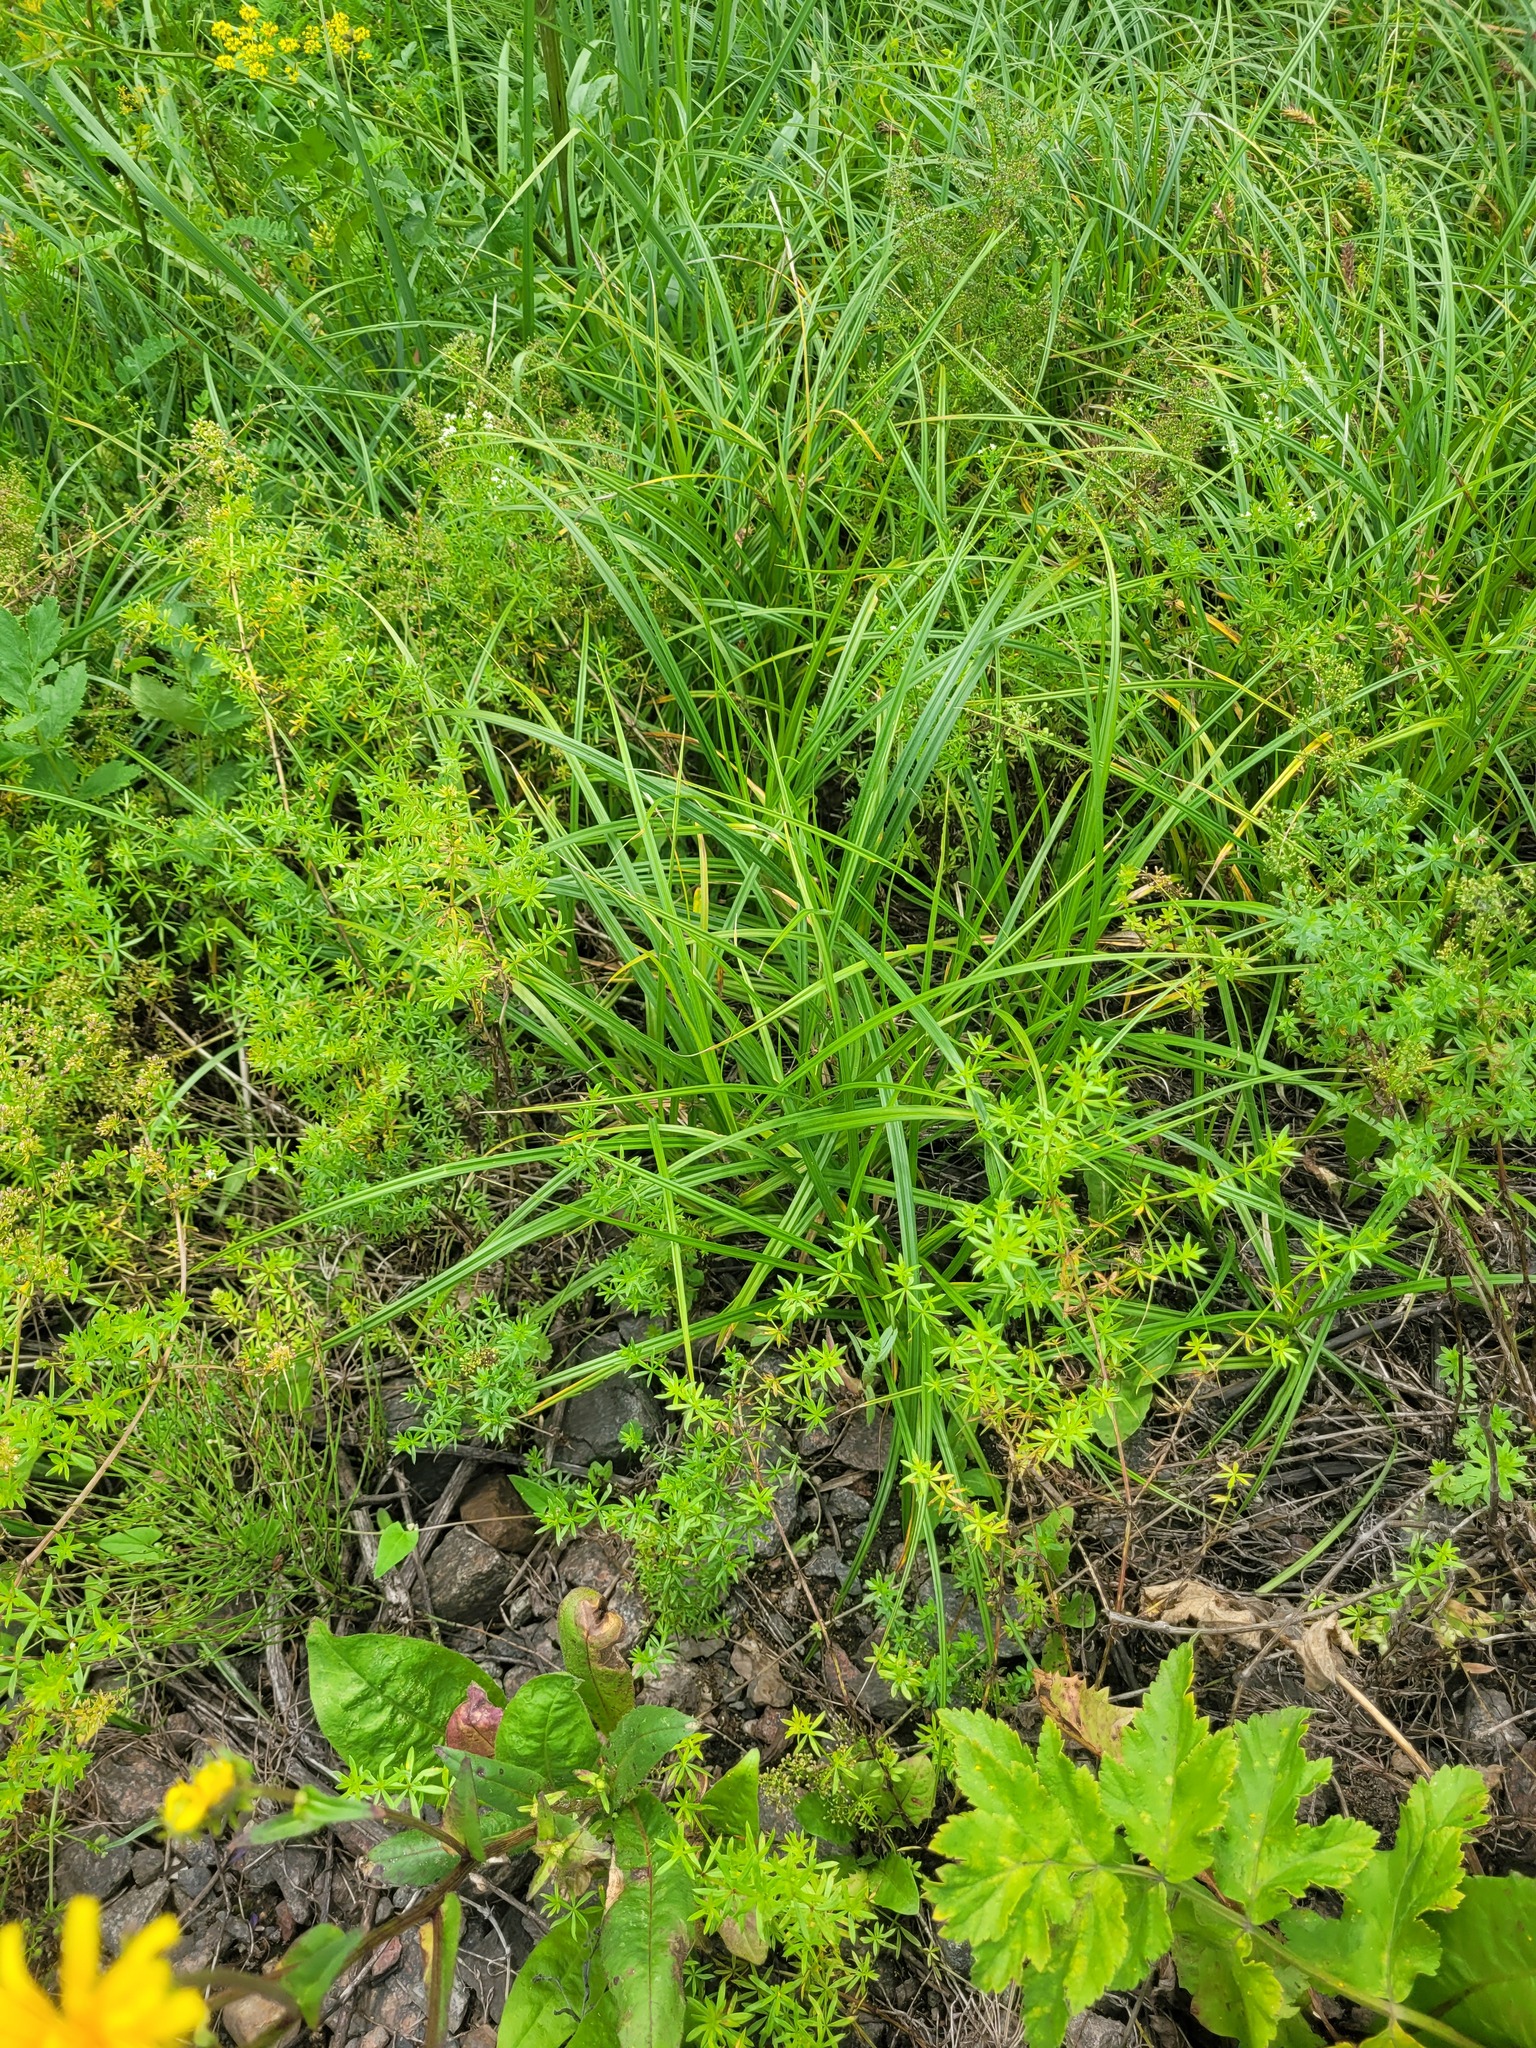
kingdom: Plantae
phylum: Tracheophyta
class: Liliopsida
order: Poales
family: Cyperaceae
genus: Carex
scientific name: Carex hirta
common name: Hairy sedge
